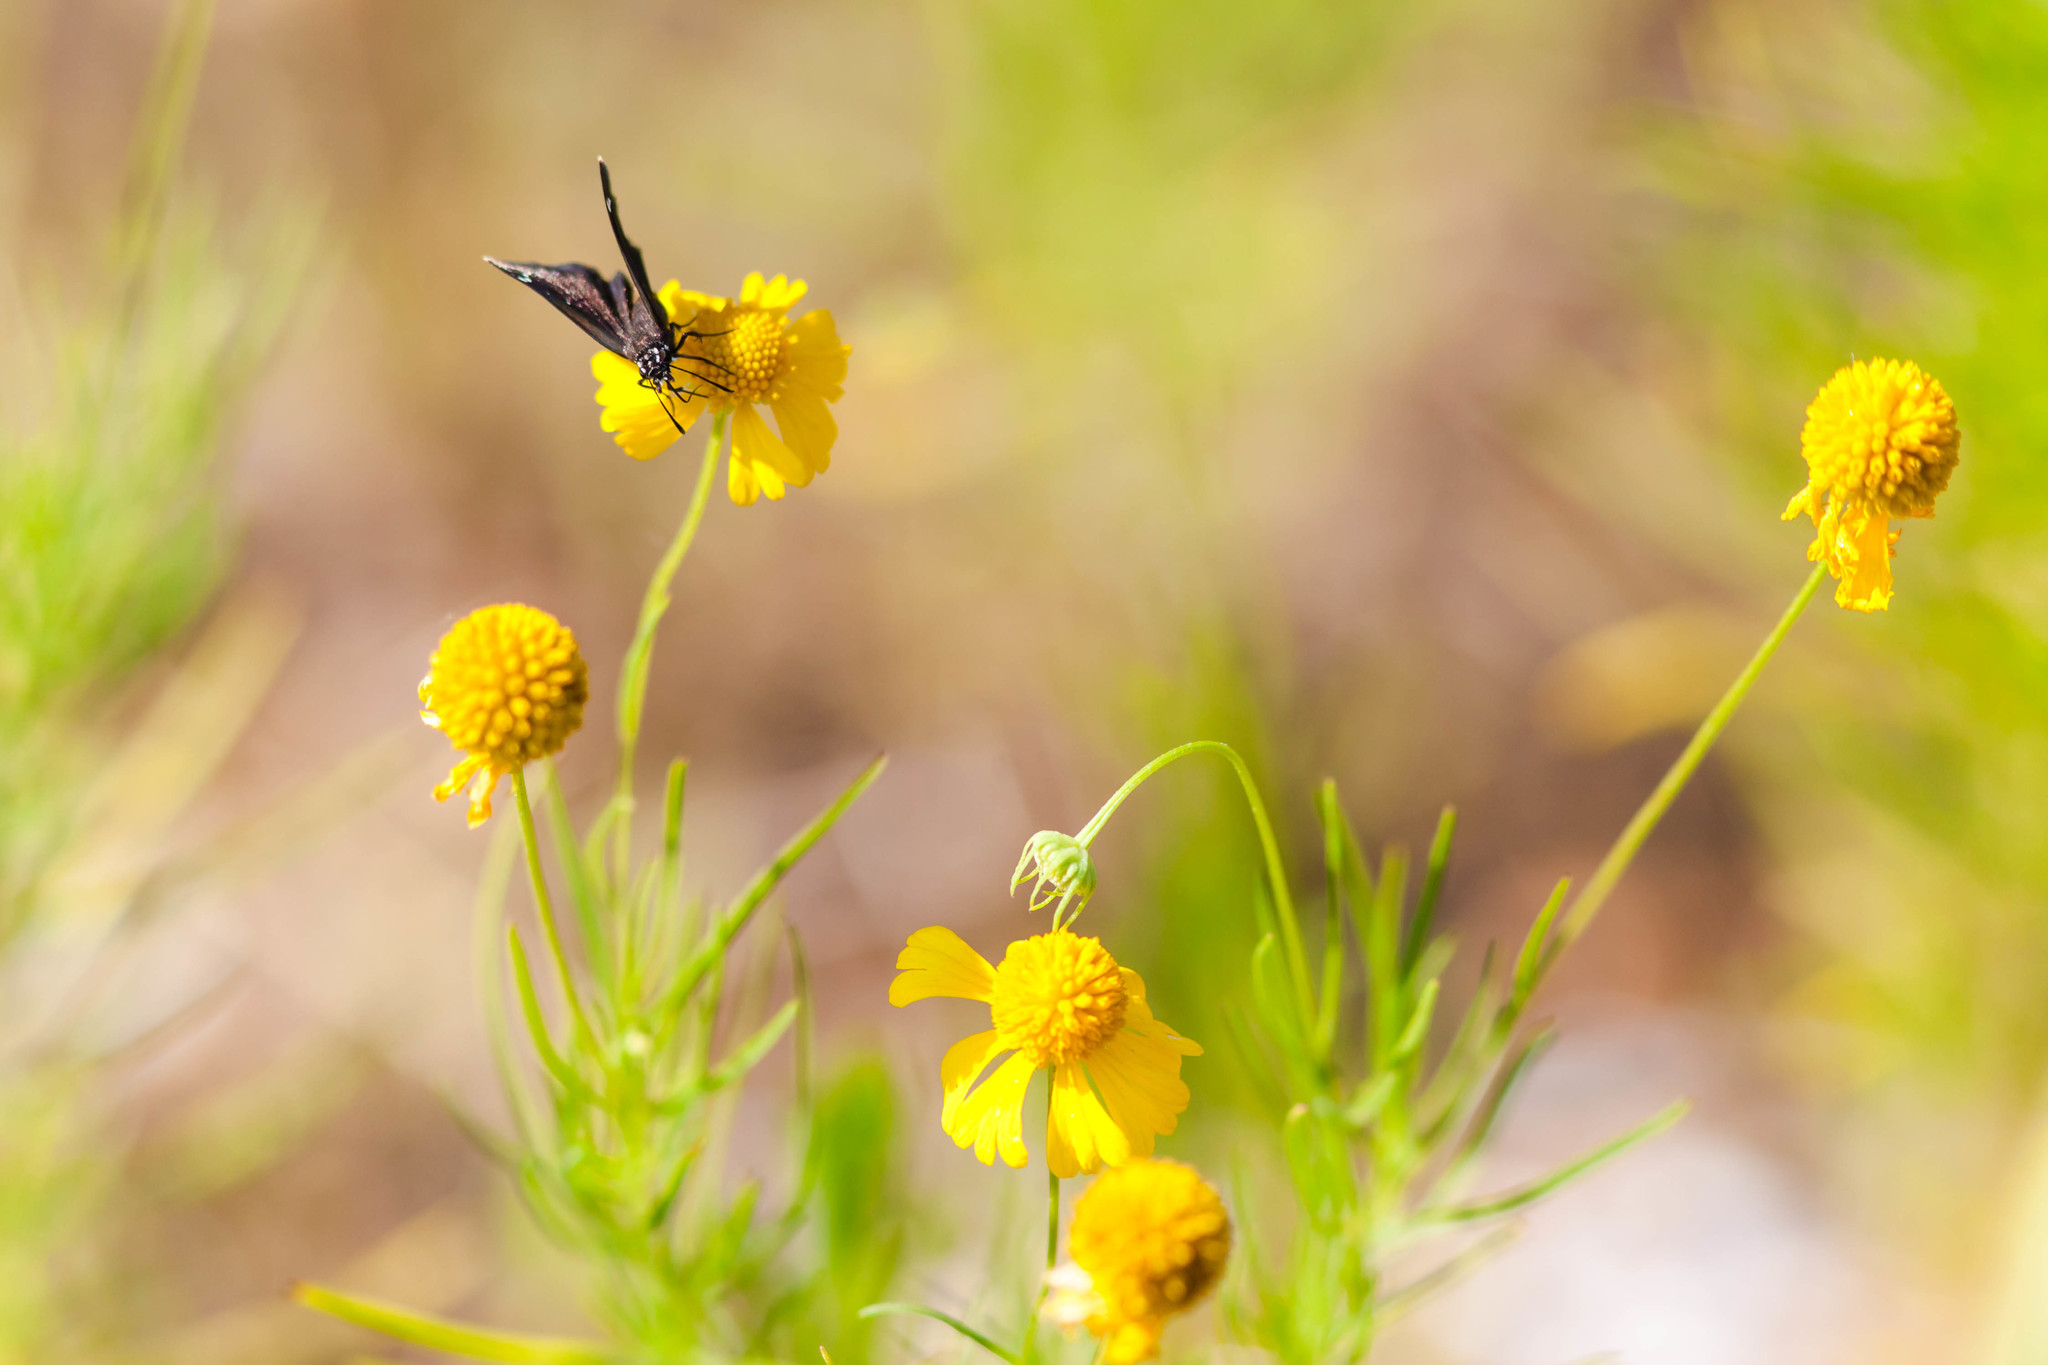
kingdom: Animalia
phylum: Arthropoda
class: Insecta
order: Lepidoptera
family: Hesperiidae
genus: Pholisora
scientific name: Pholisora catullus
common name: Common sootywing
